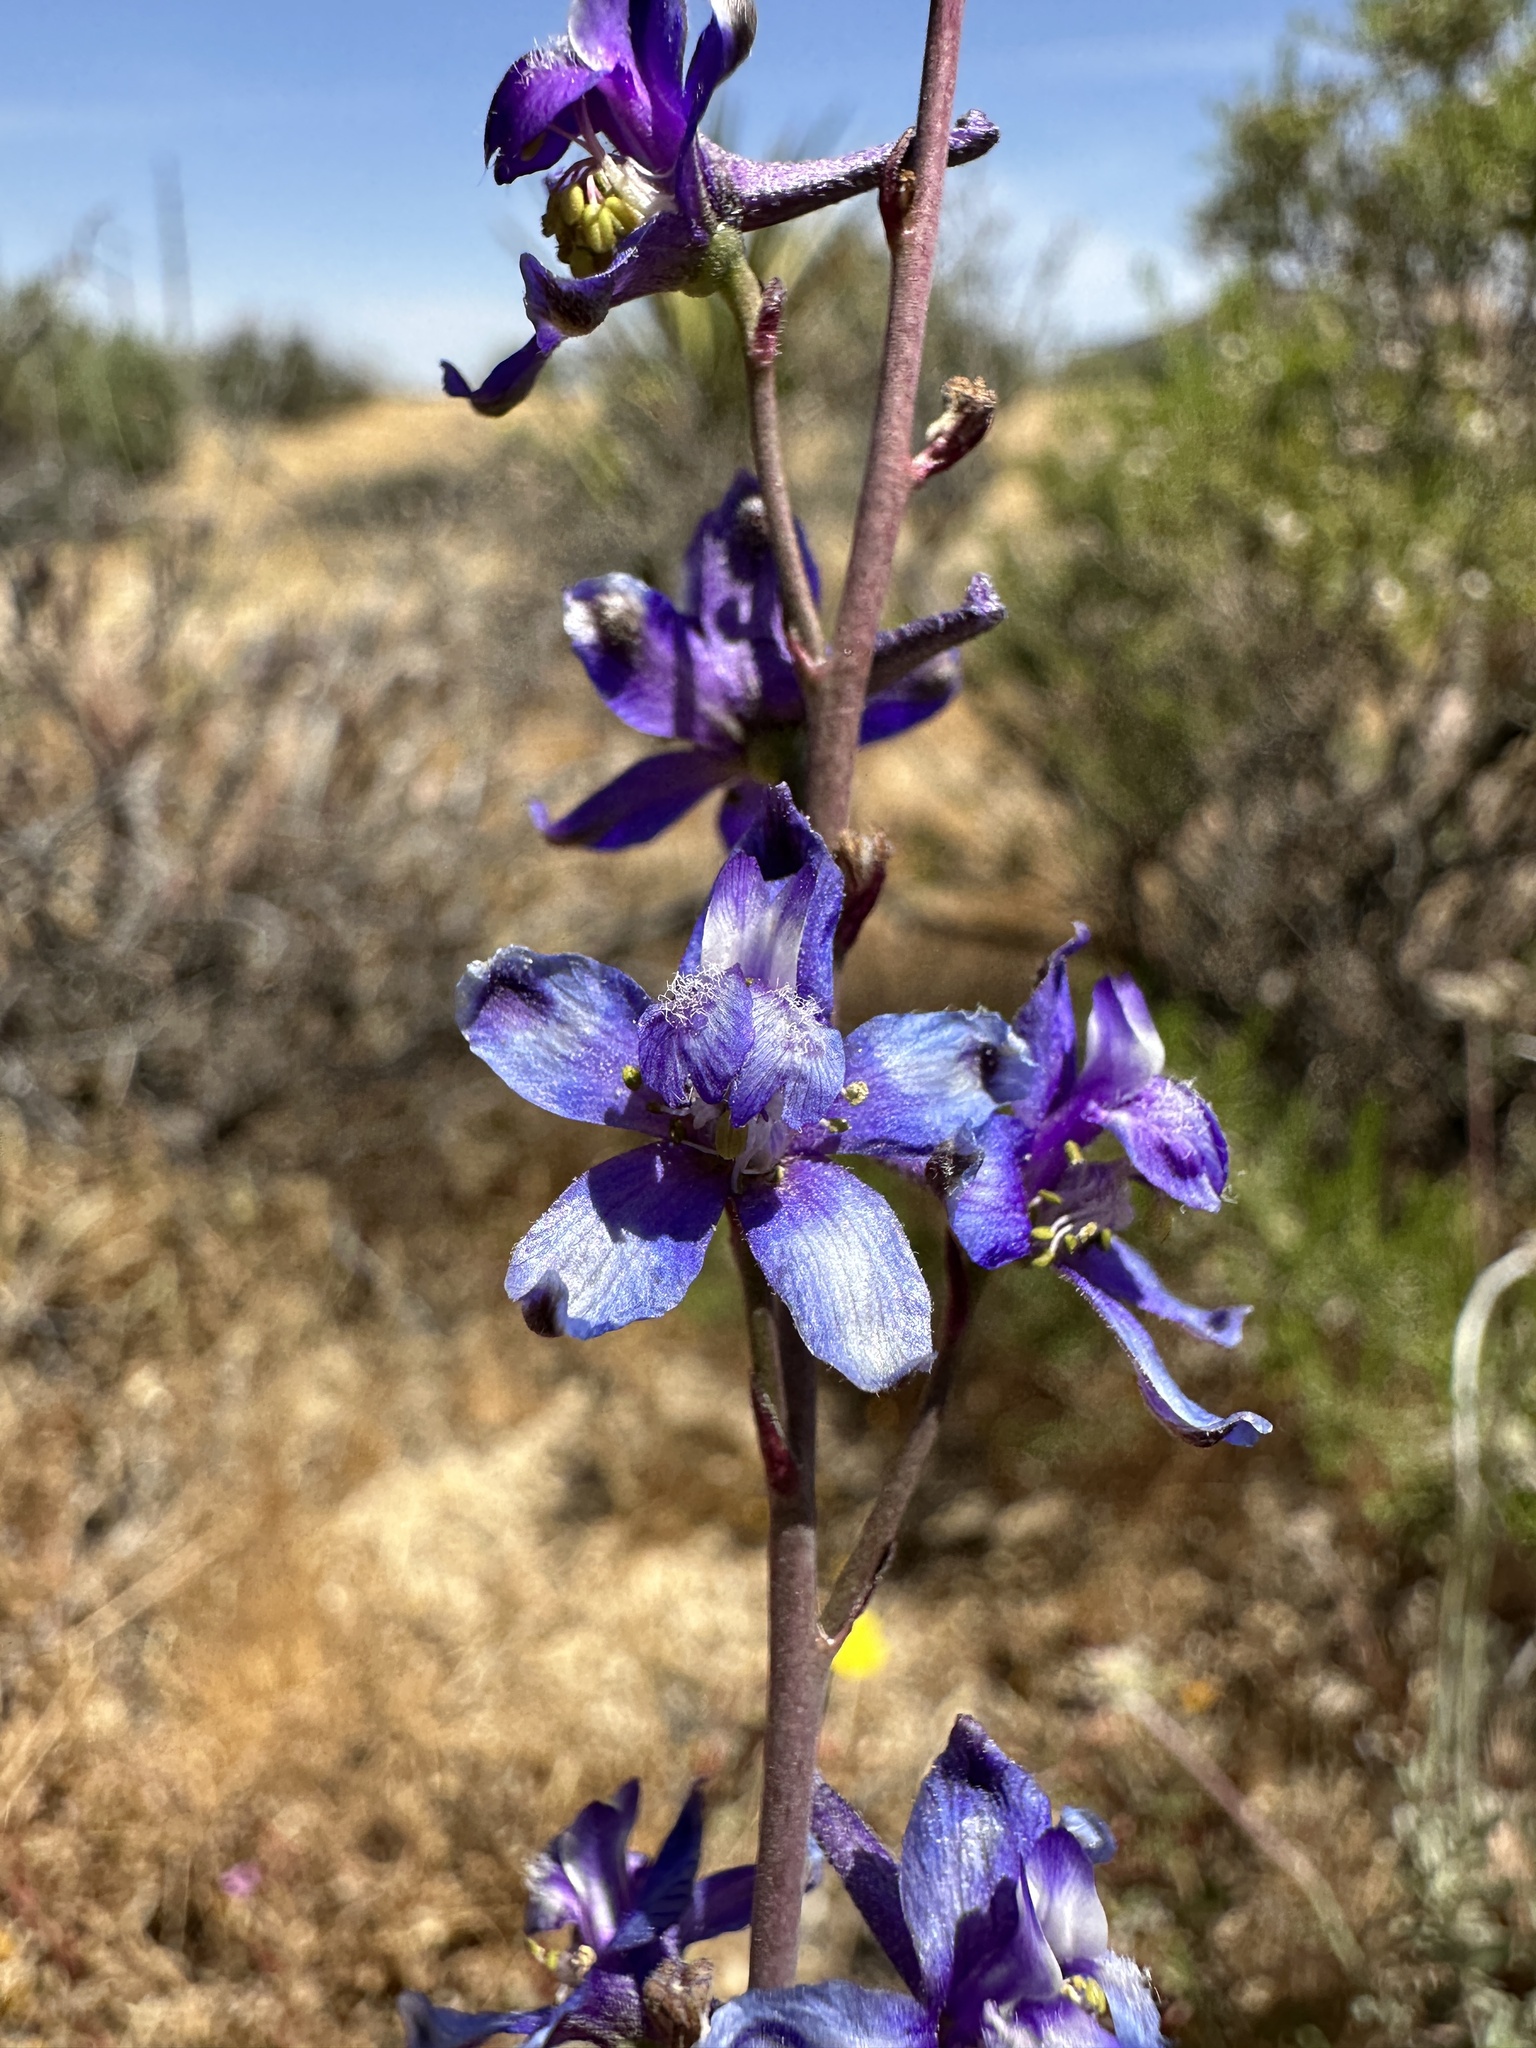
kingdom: Plantae
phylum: Tracheophyta
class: Magnoliopsida
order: Ranunculales
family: Ranunculaceae
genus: Delphinium
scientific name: Delphinium parishii
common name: Apache larkspur
